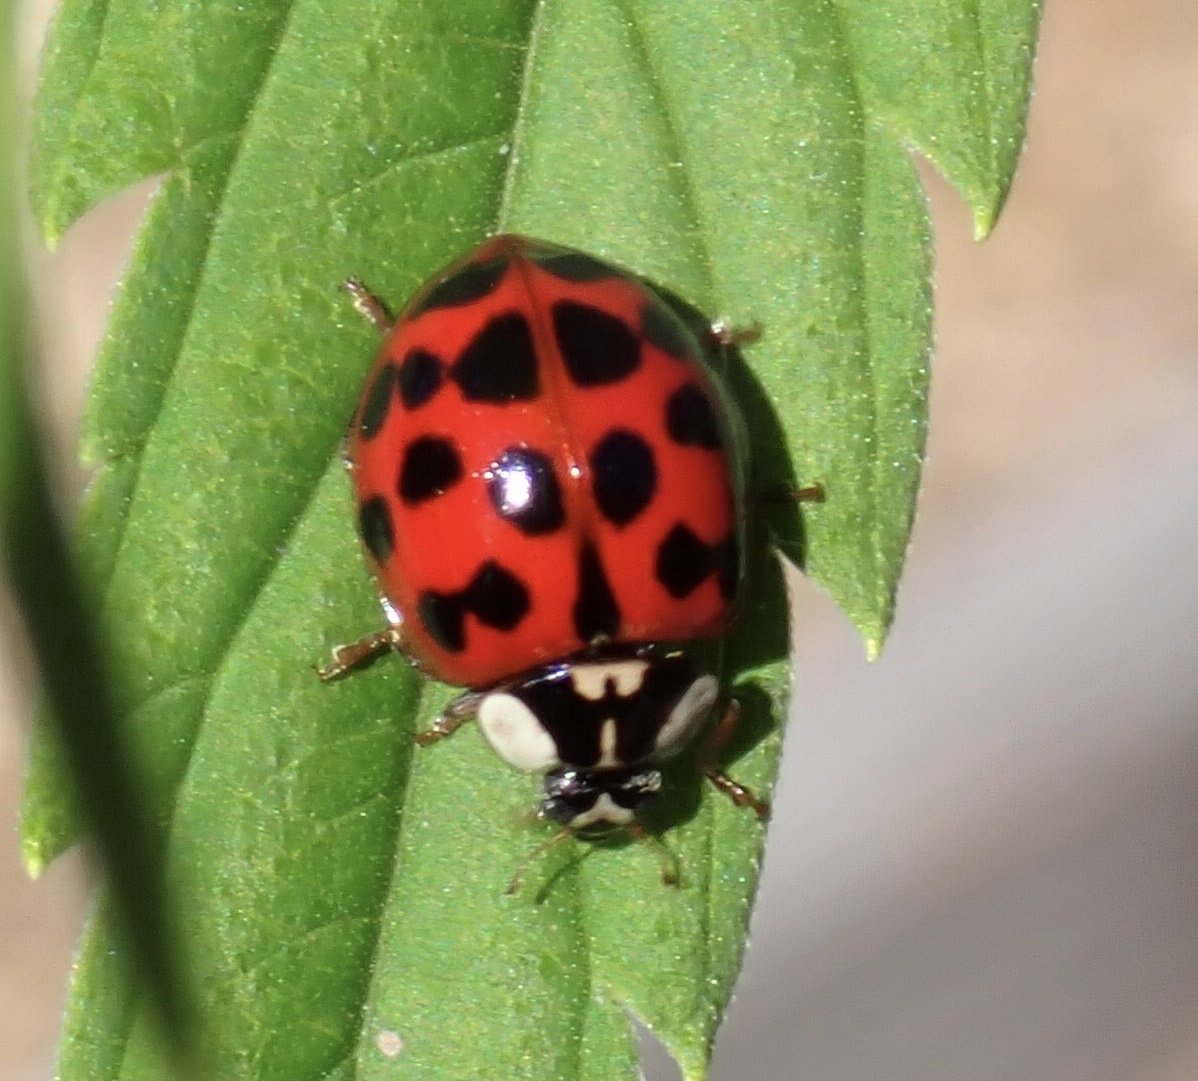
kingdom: Animalia
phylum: Arthropoda
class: Insecta
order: Coleoptera
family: Coccinellidae
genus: Harmonia
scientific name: Harmonia axyridis
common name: Harlequin ladybird
